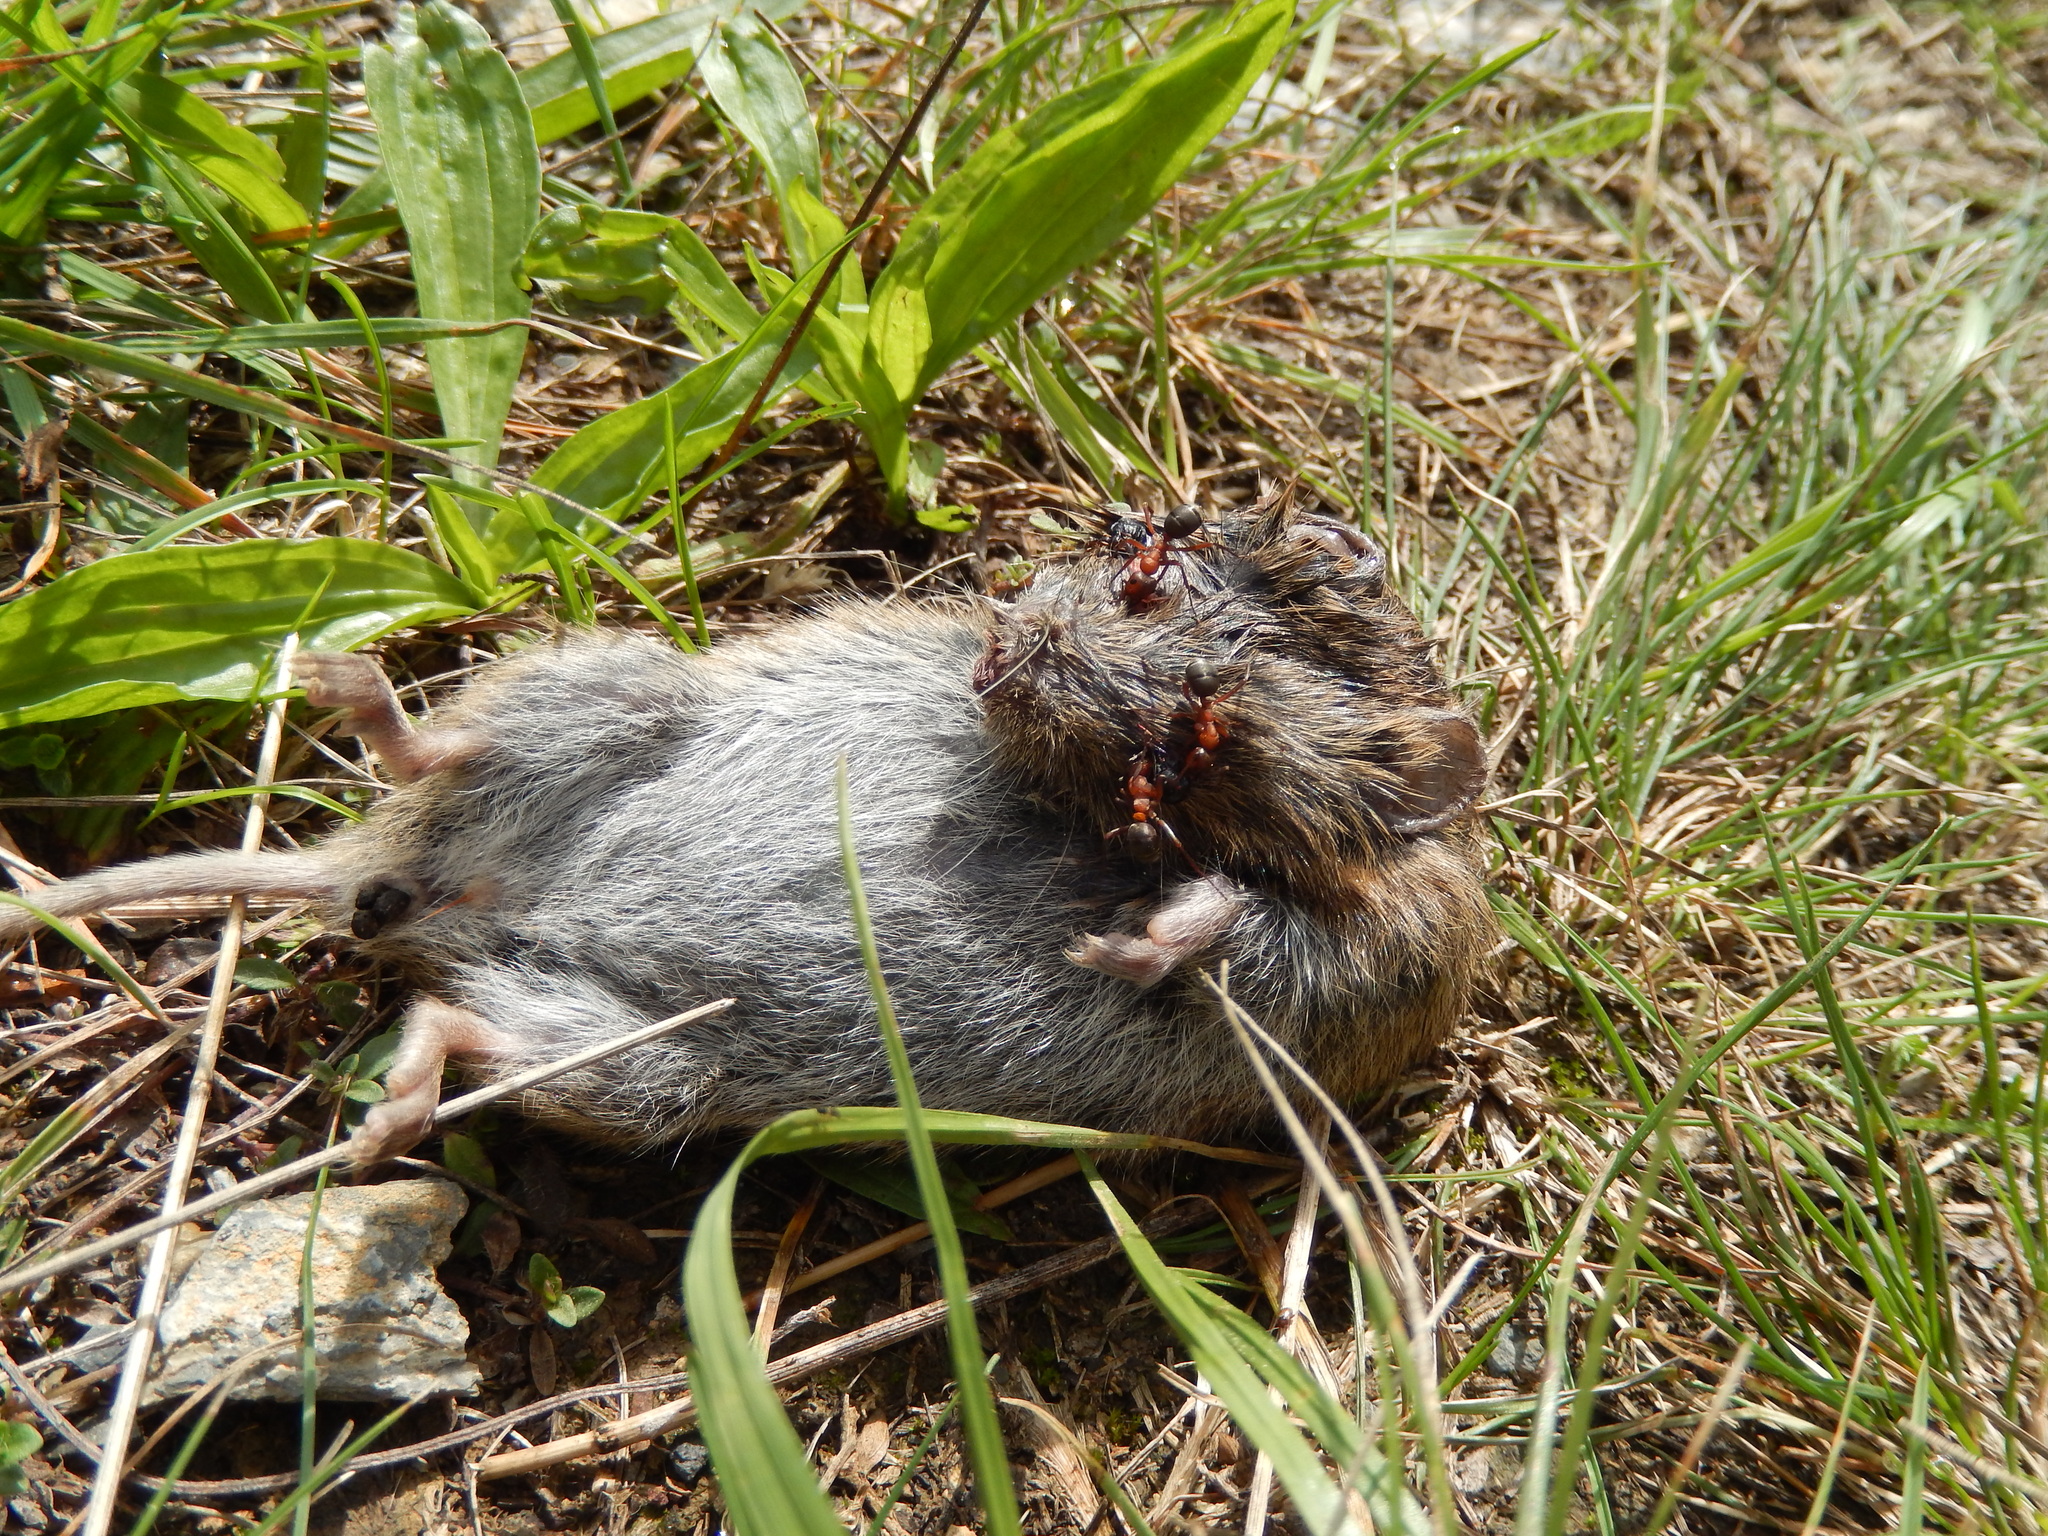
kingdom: Animalia
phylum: Arthropoda
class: Insecta
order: Hymenoptera
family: Formicidae
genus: Formica
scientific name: Formica sanguinea
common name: Blood-red ant
